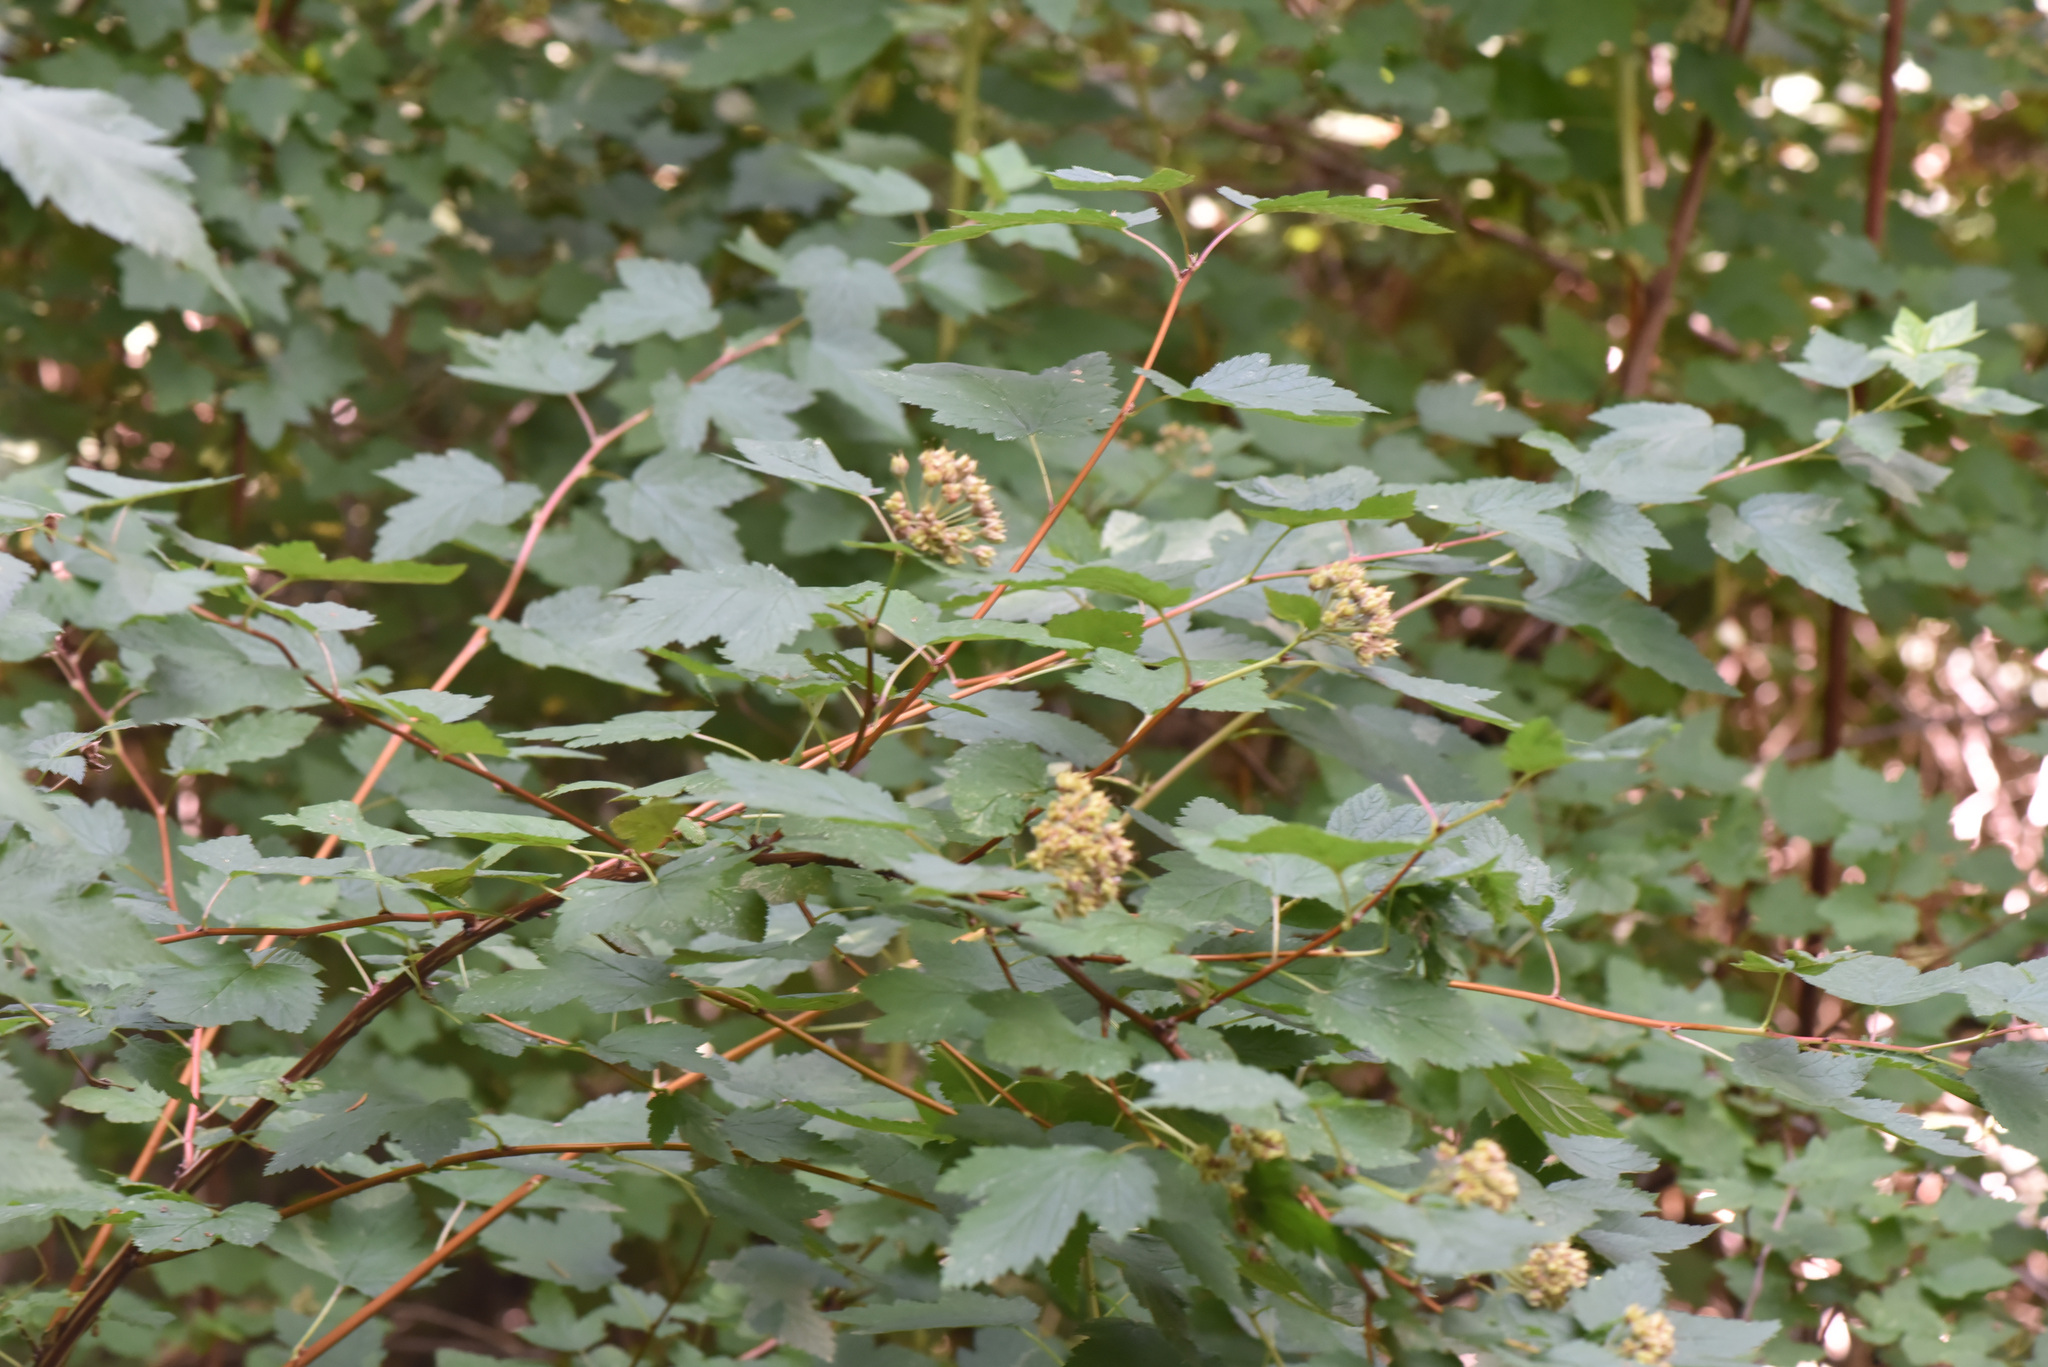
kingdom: Plantae
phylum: Tracheophyta
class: Magnoliopsida
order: Rosales
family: Rosaceae
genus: Physocarpus
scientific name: Physocarpus capitatus
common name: Pacific ninebark
